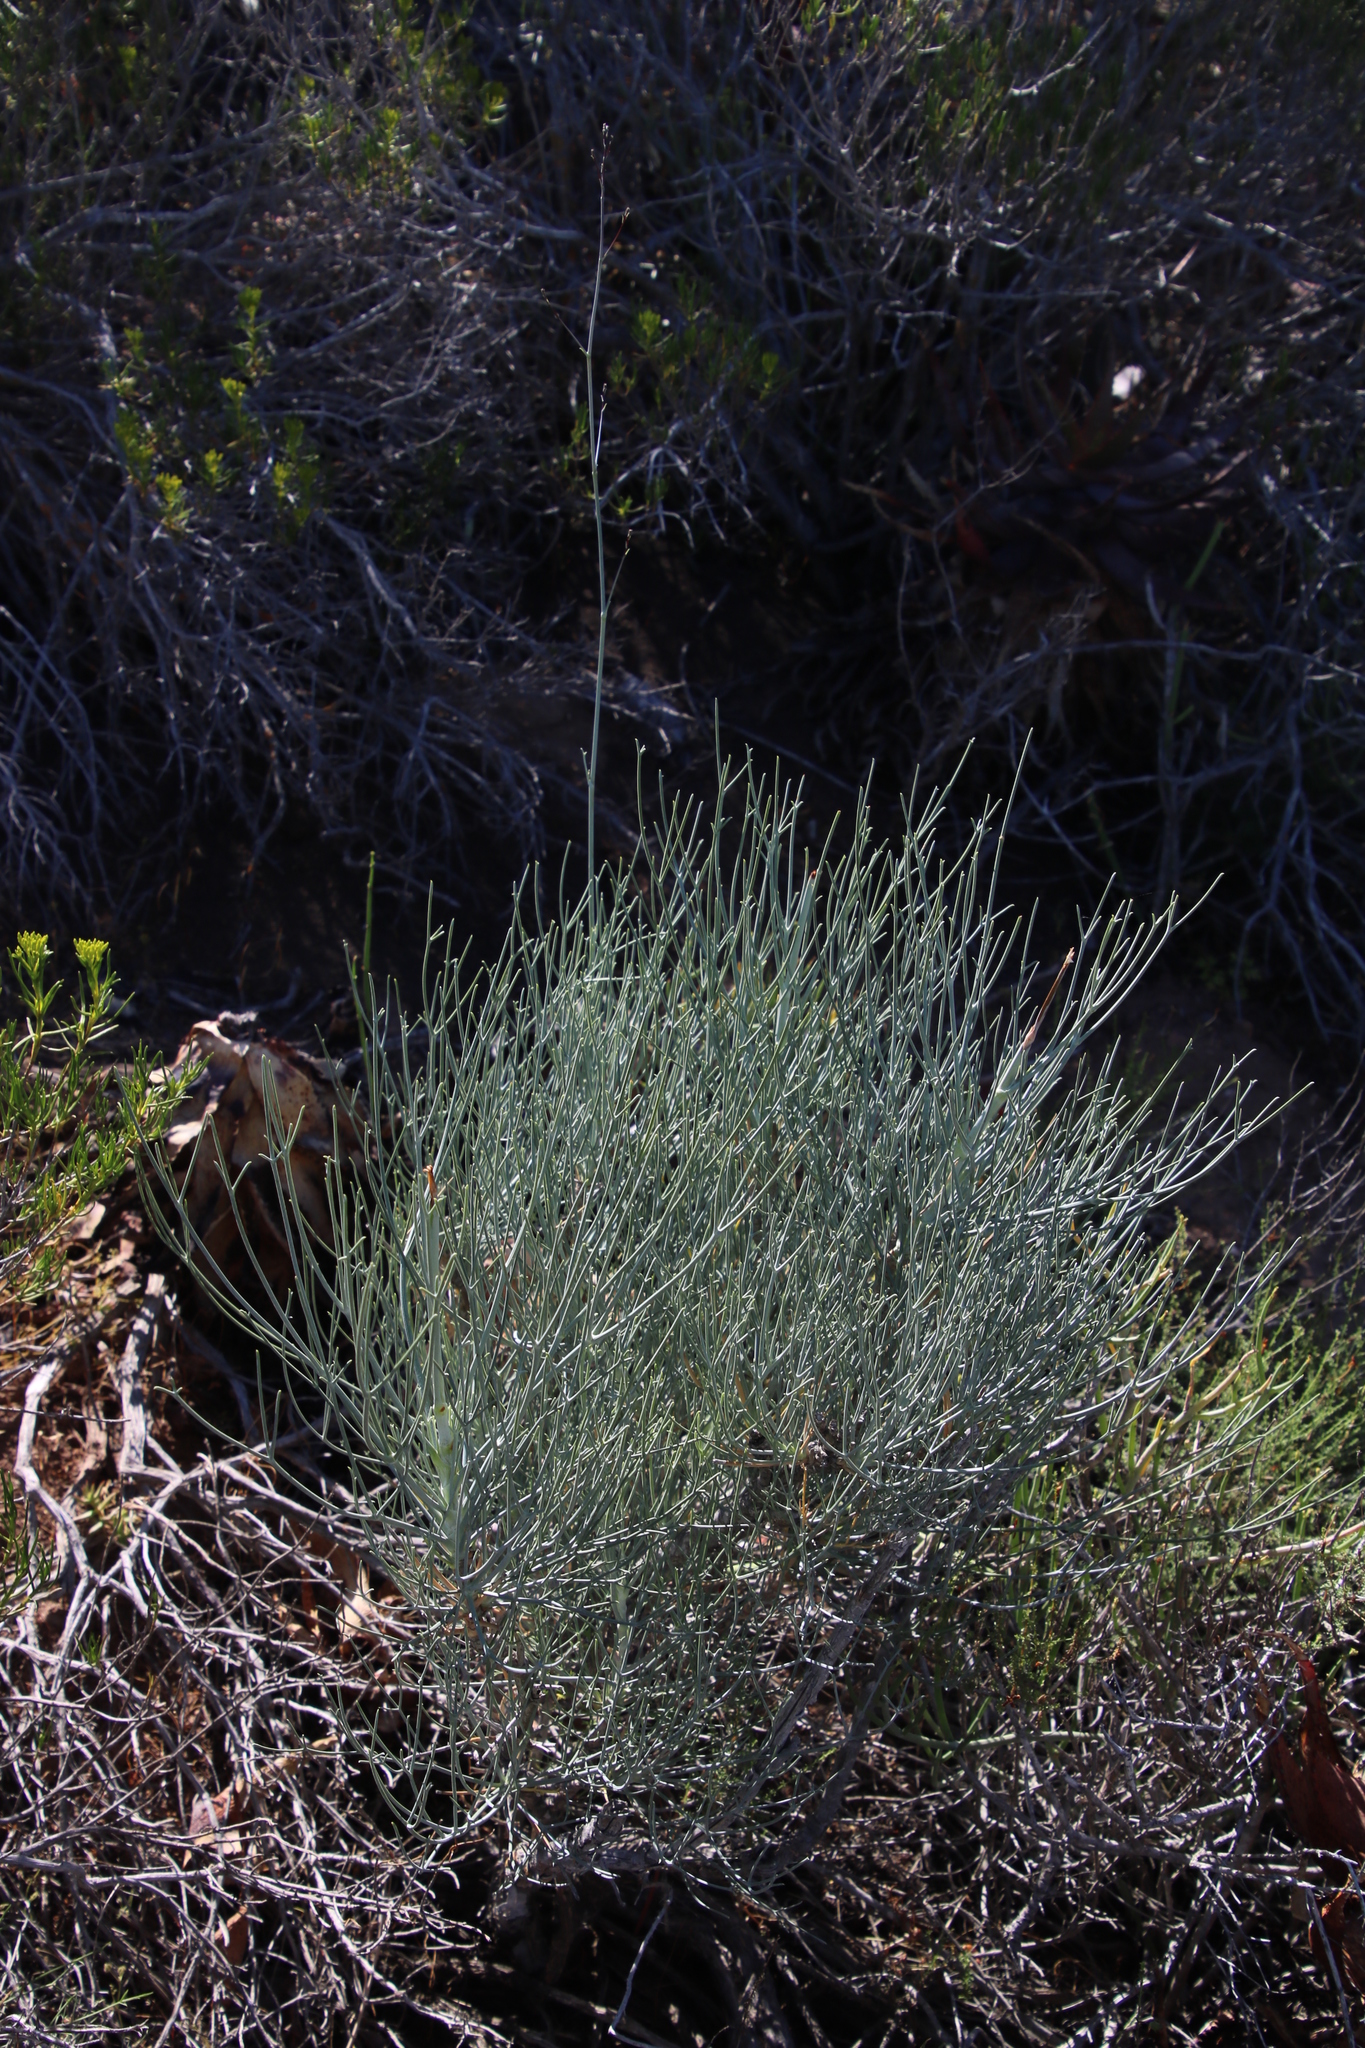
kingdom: Plantae
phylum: Tracheophyta
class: Magnoliopsida
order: Apiales
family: Apiaceae
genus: Anginon
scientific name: Anginon swellendamense
